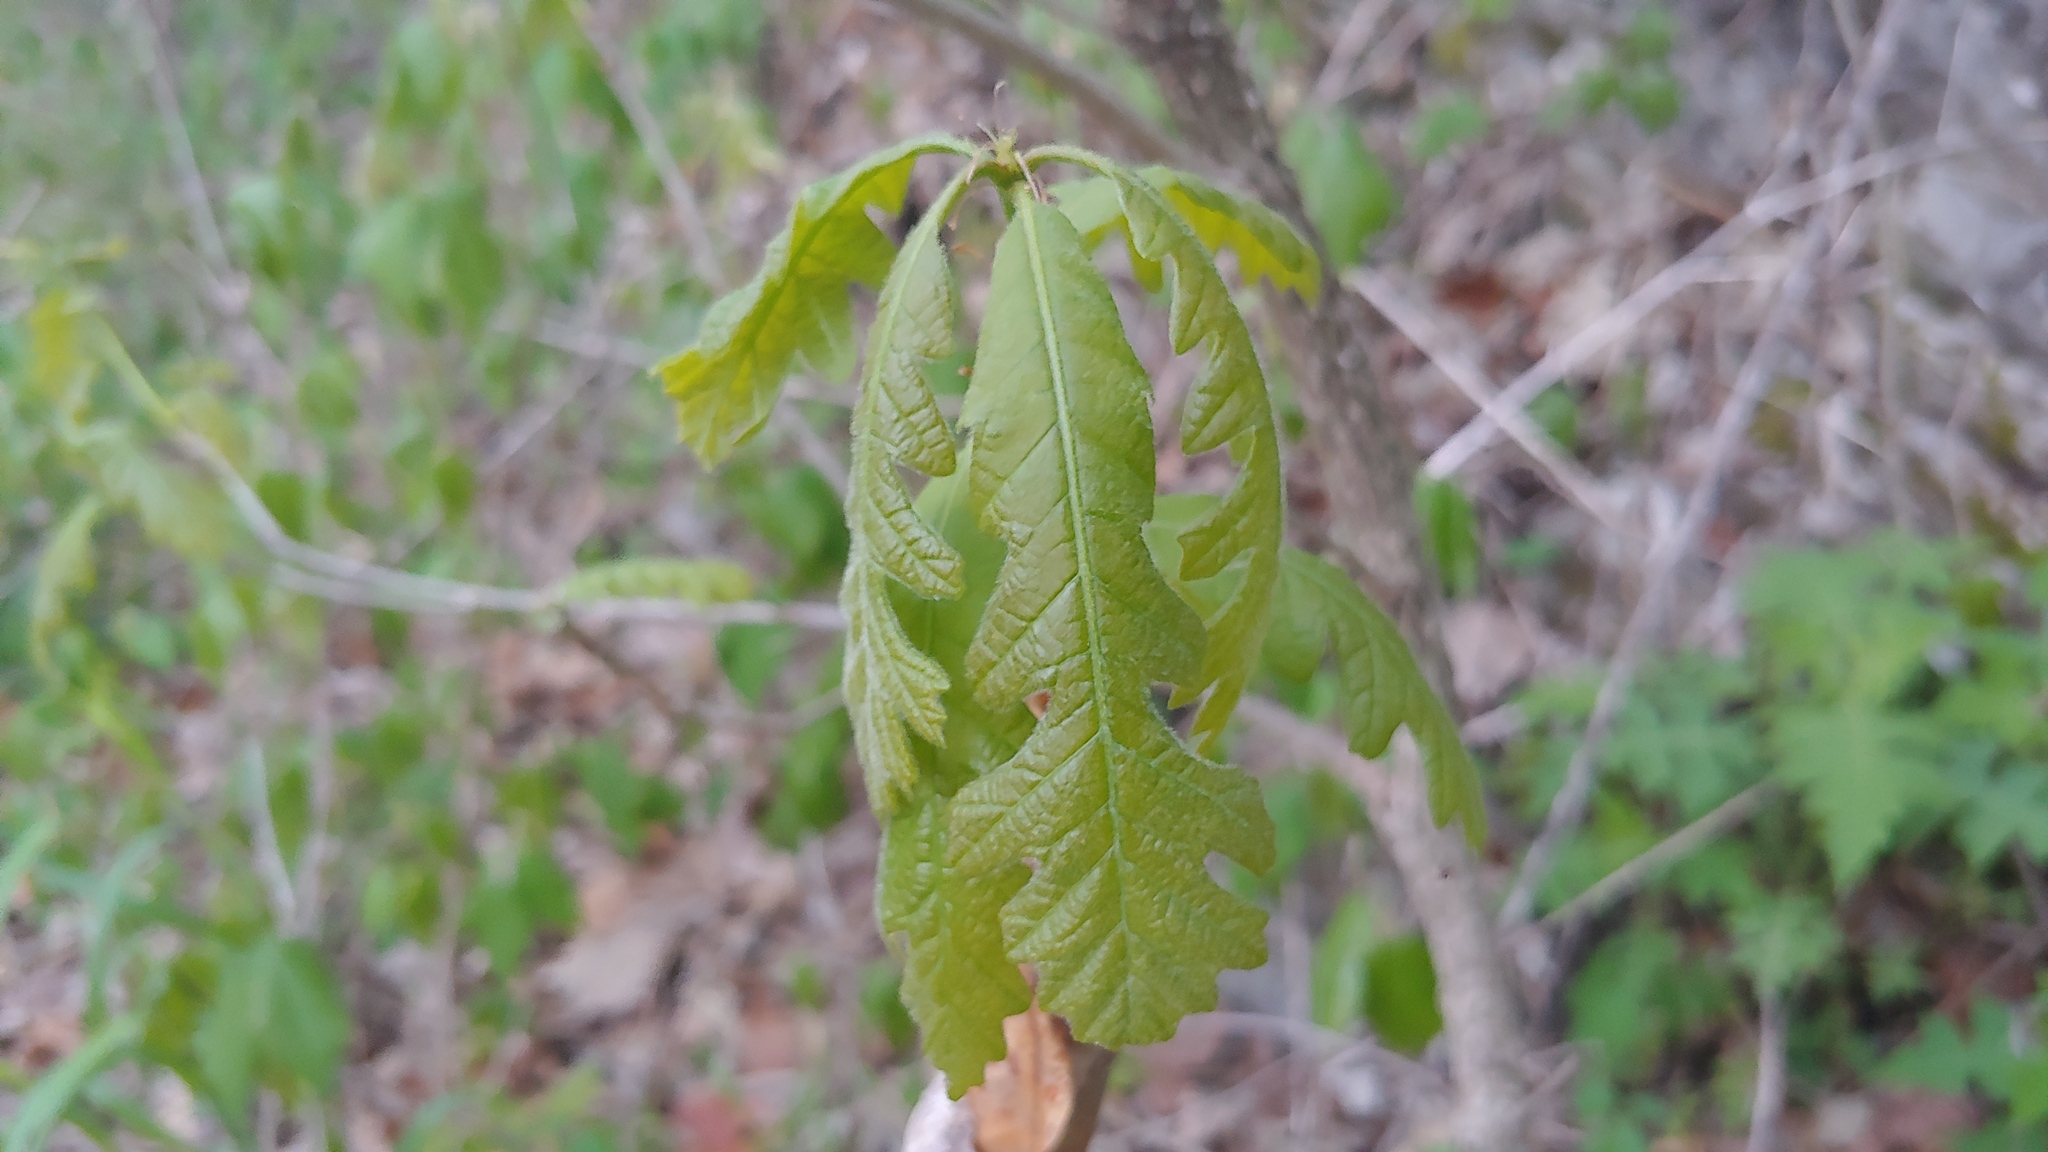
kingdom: Plantae
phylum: Tracheophyta
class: Magnoliopsida
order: Fagales
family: Fagaceae
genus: Quercus
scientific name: Quercus macrocarpa
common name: Bur oak
